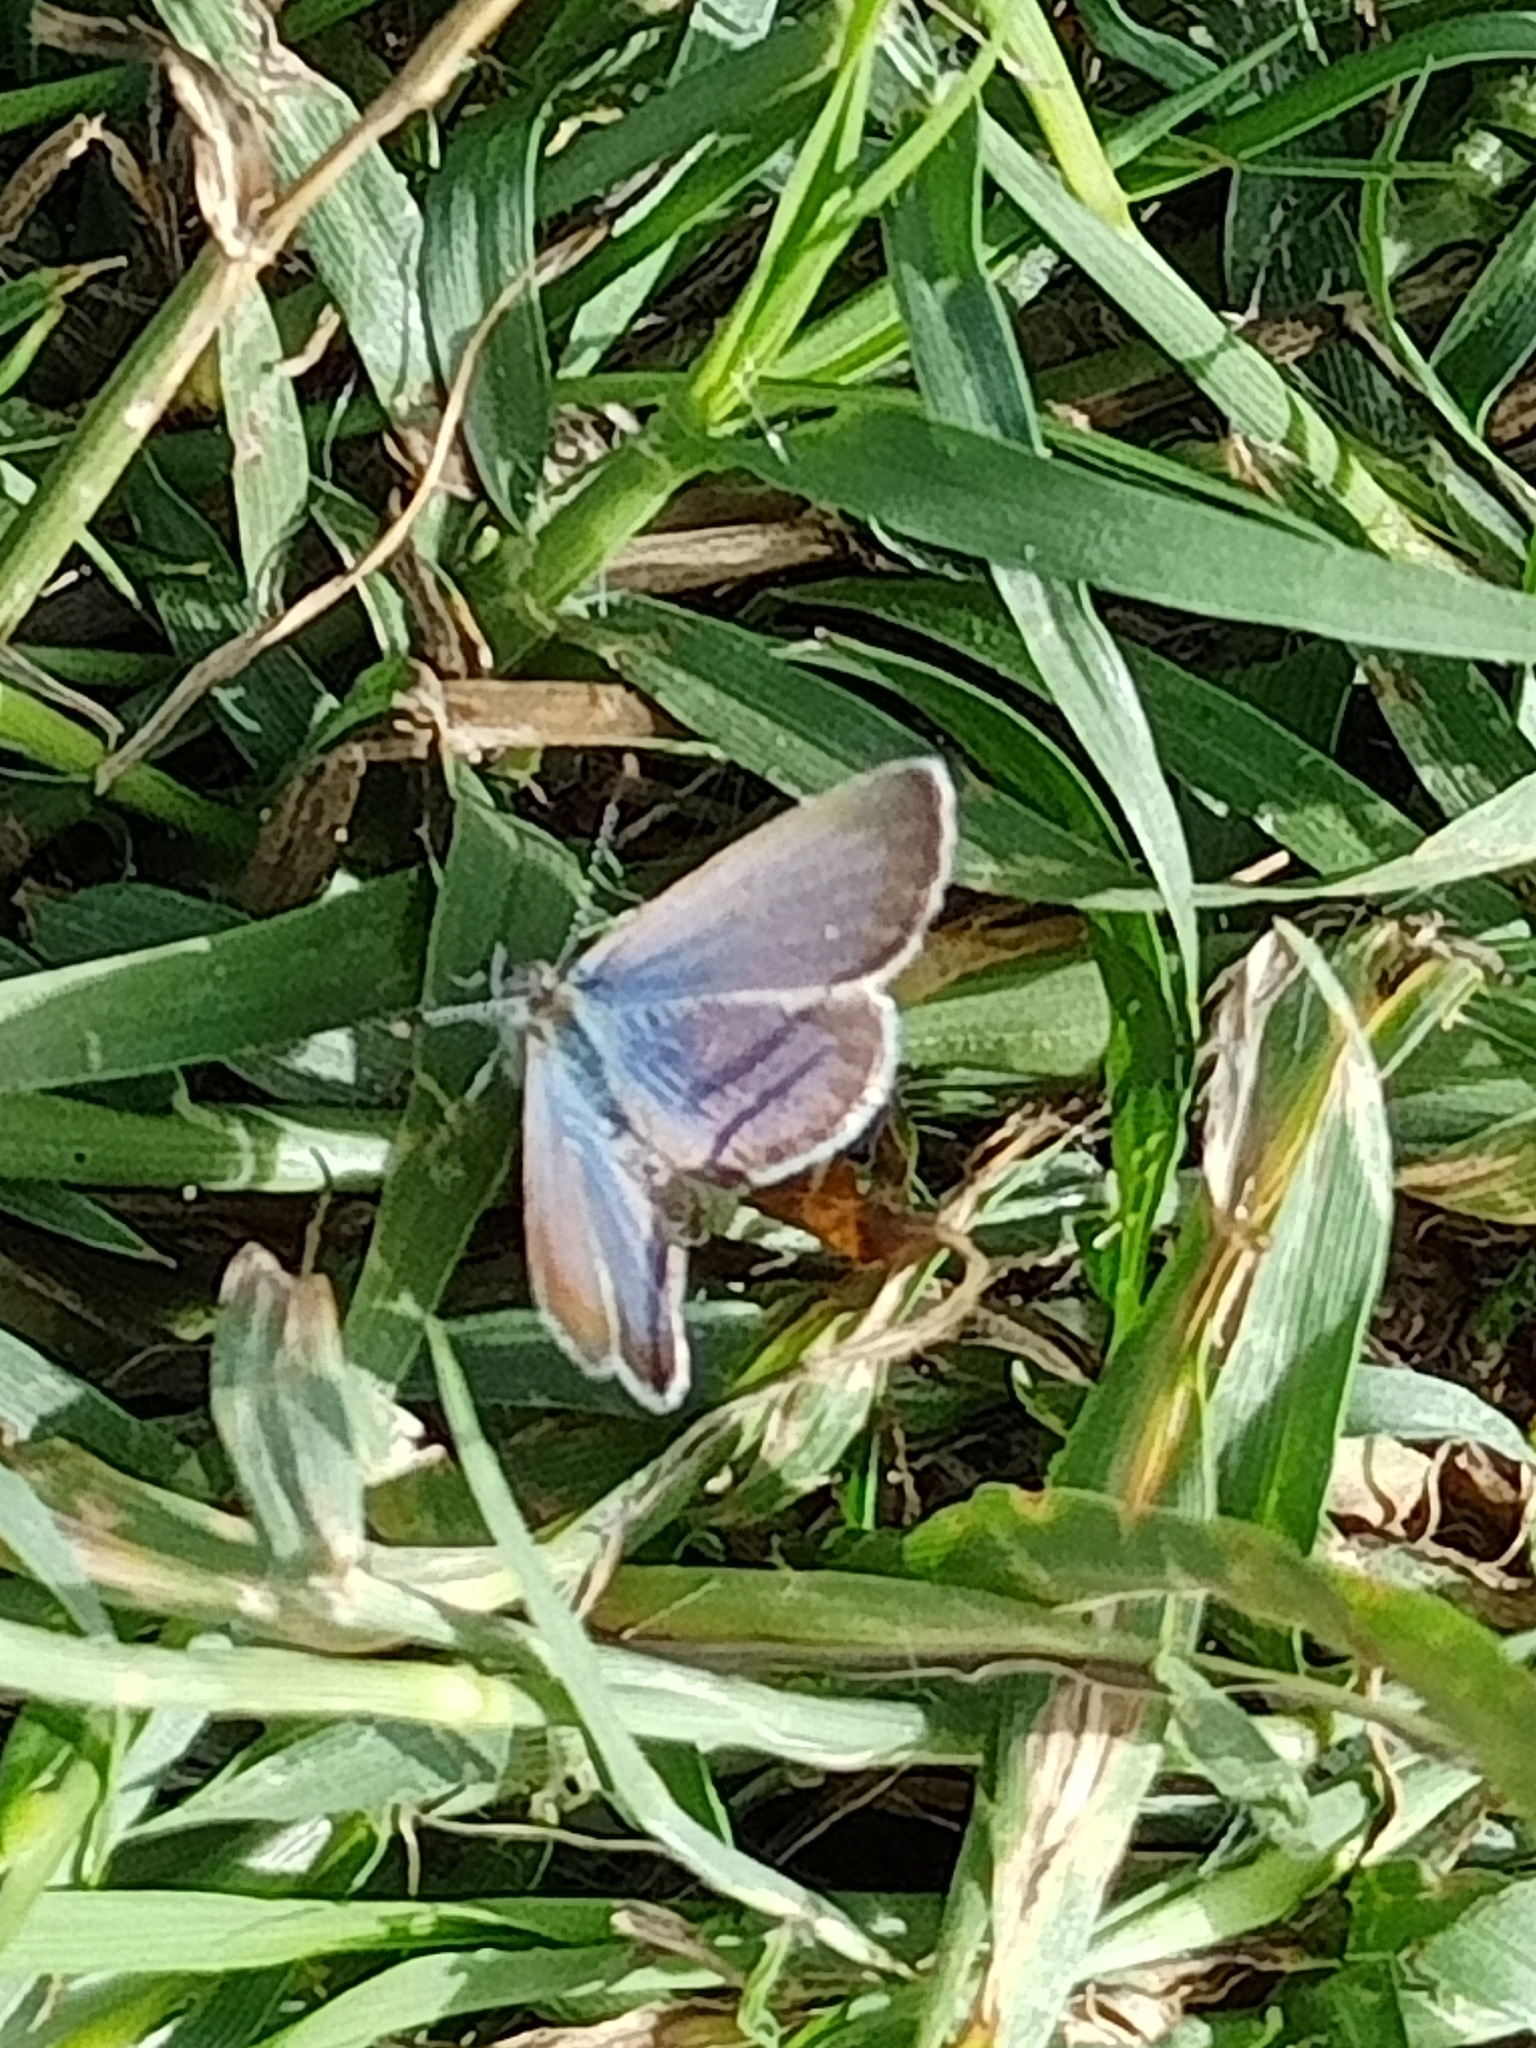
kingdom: Animalia
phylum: Arthropoda
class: Insecta
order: Lepidoptera
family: Lycaenidae
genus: Zizeeria
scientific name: Zizeeria knysna
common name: African grass blue
